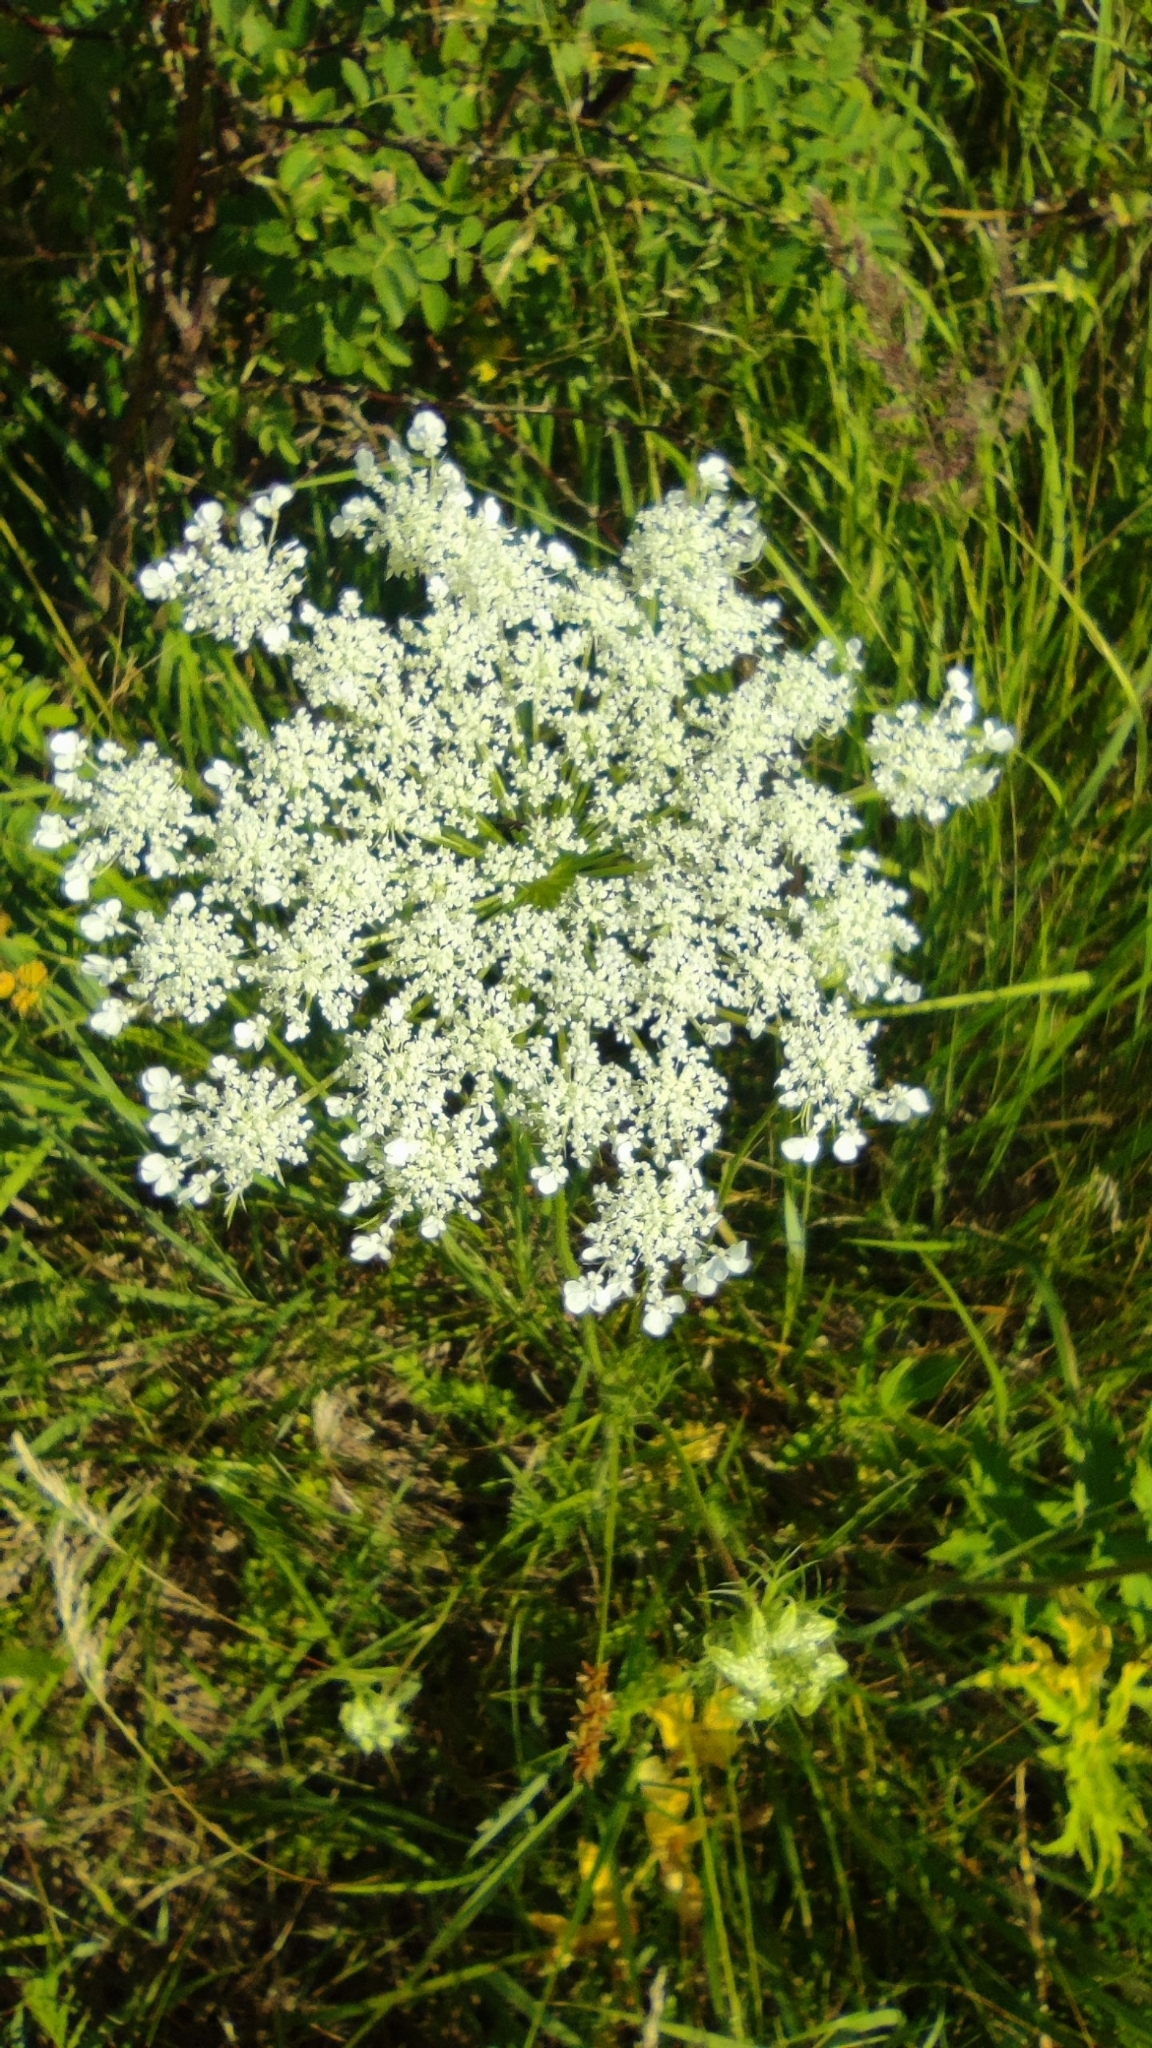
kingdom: Plantae
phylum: Tracheophyta
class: Magnoliopsida
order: Apiales
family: Apiaceae
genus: Daucus
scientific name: Daucus carota
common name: Wild carrot
